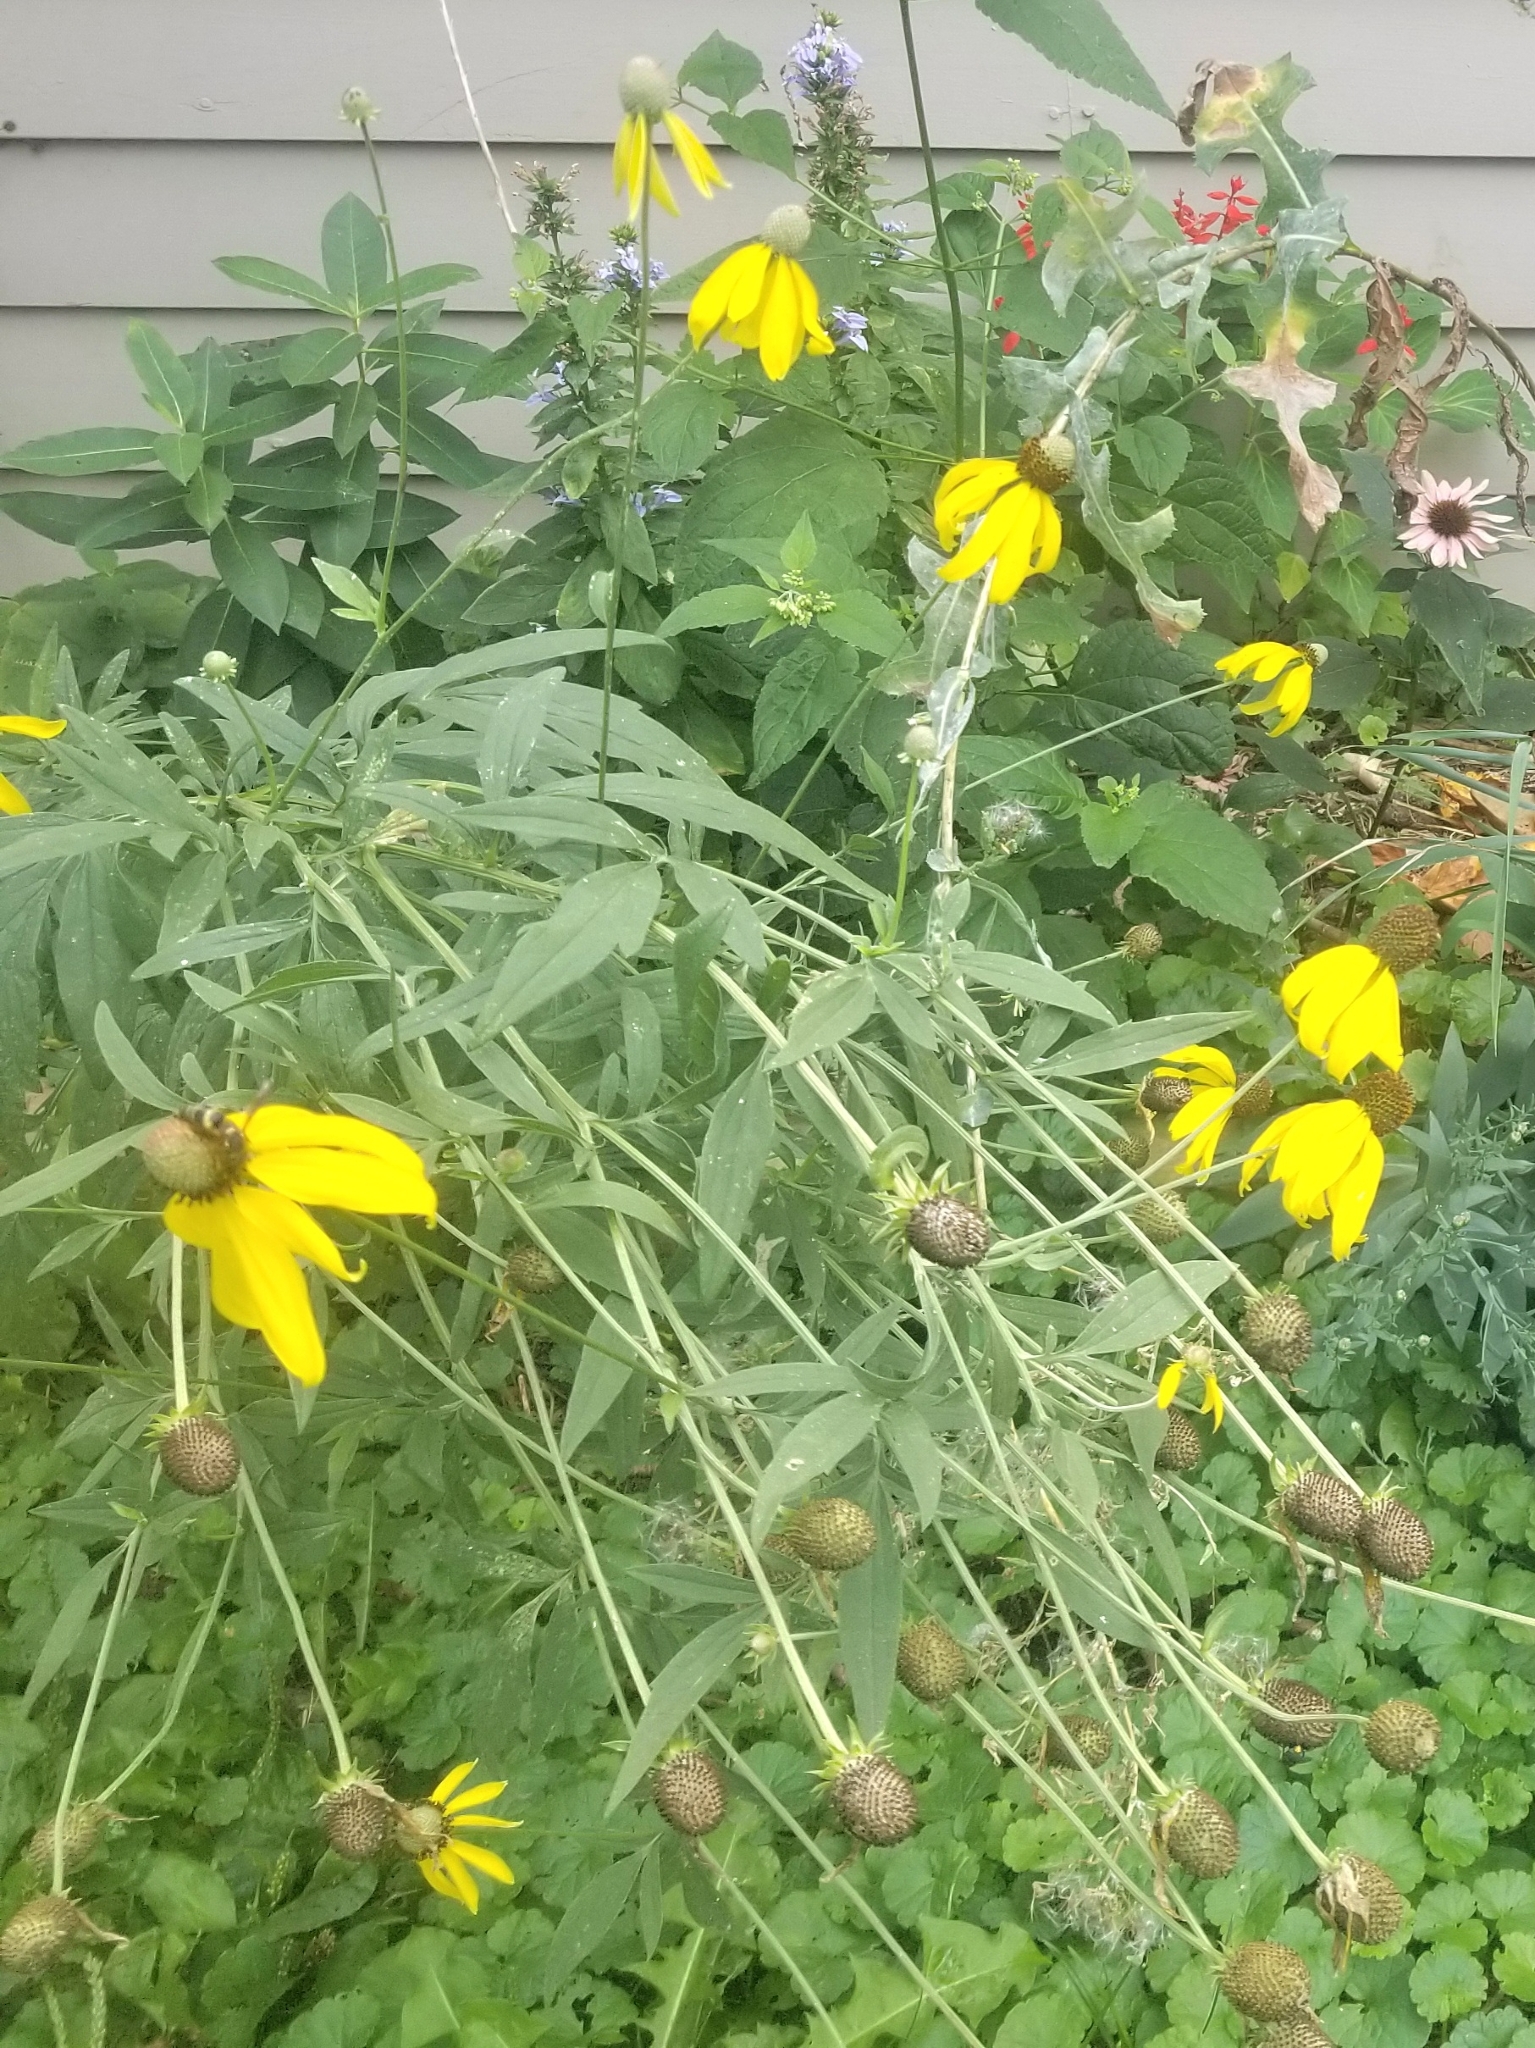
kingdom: Plantae
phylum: Tracheophyta
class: Magnoliopsida
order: Asterales
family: Asteraceae
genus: Ratibida
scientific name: Ratibida pinnata
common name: Drooping prairie-coneflower
